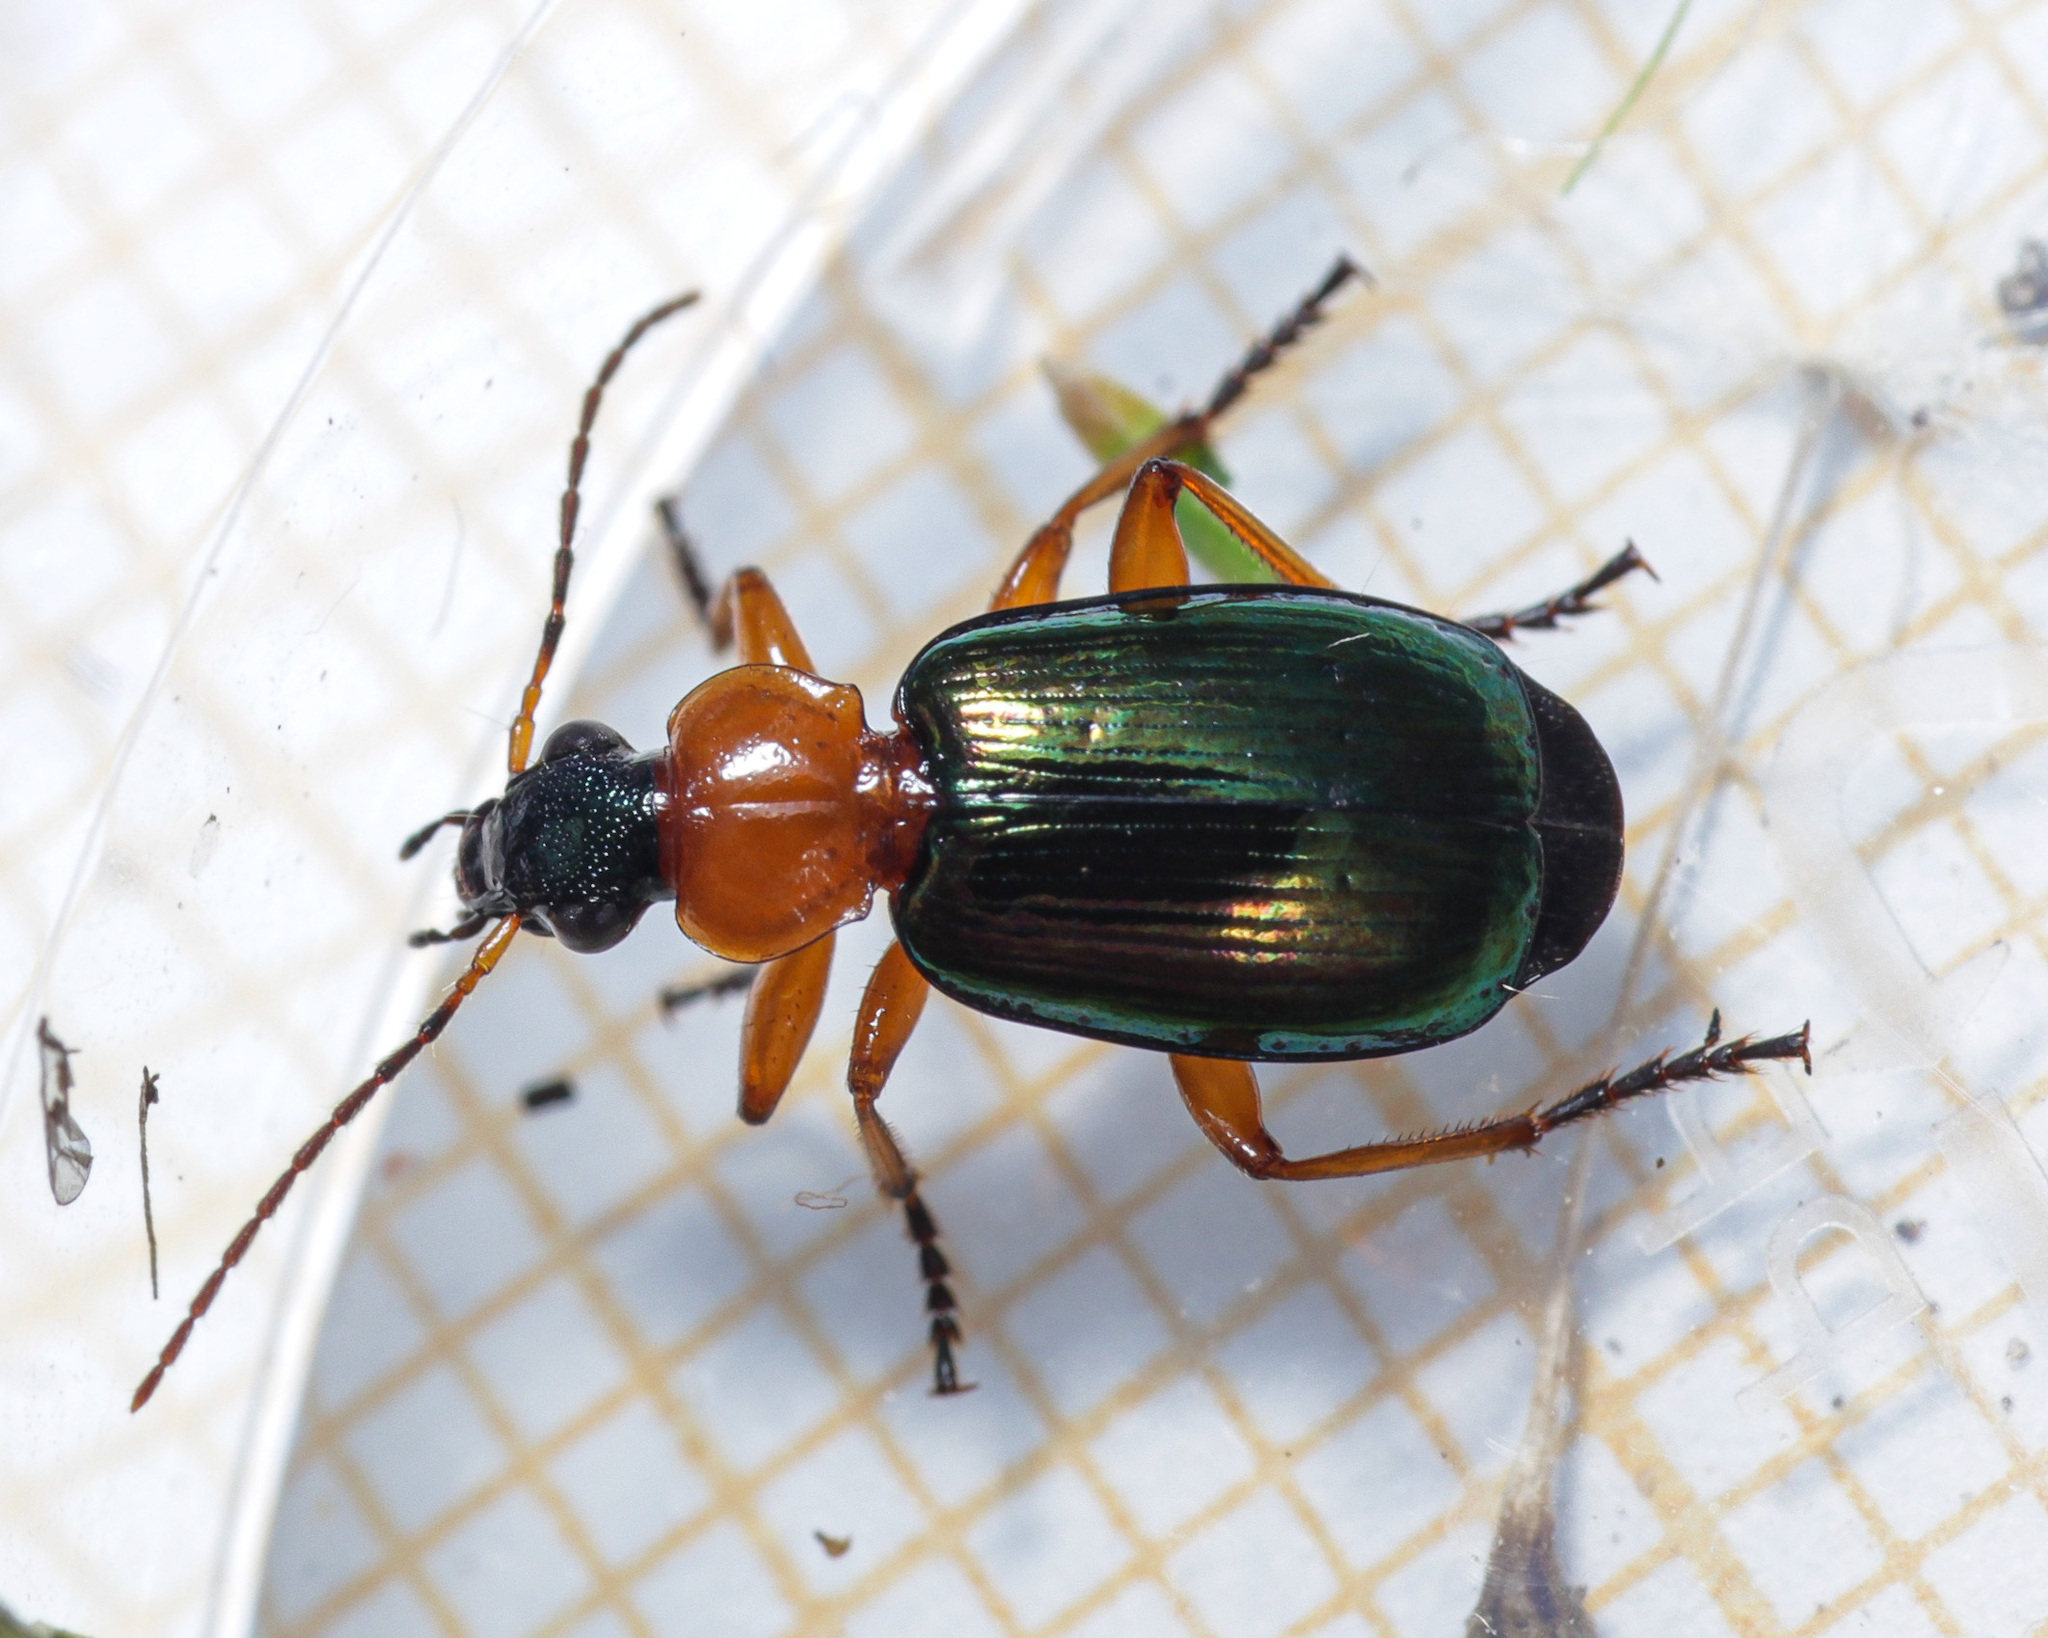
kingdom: Animalia
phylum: Arthropoda
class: Insecta
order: Coleoptera
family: Carabidae
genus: Lebia
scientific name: Lebia chlorocephala
